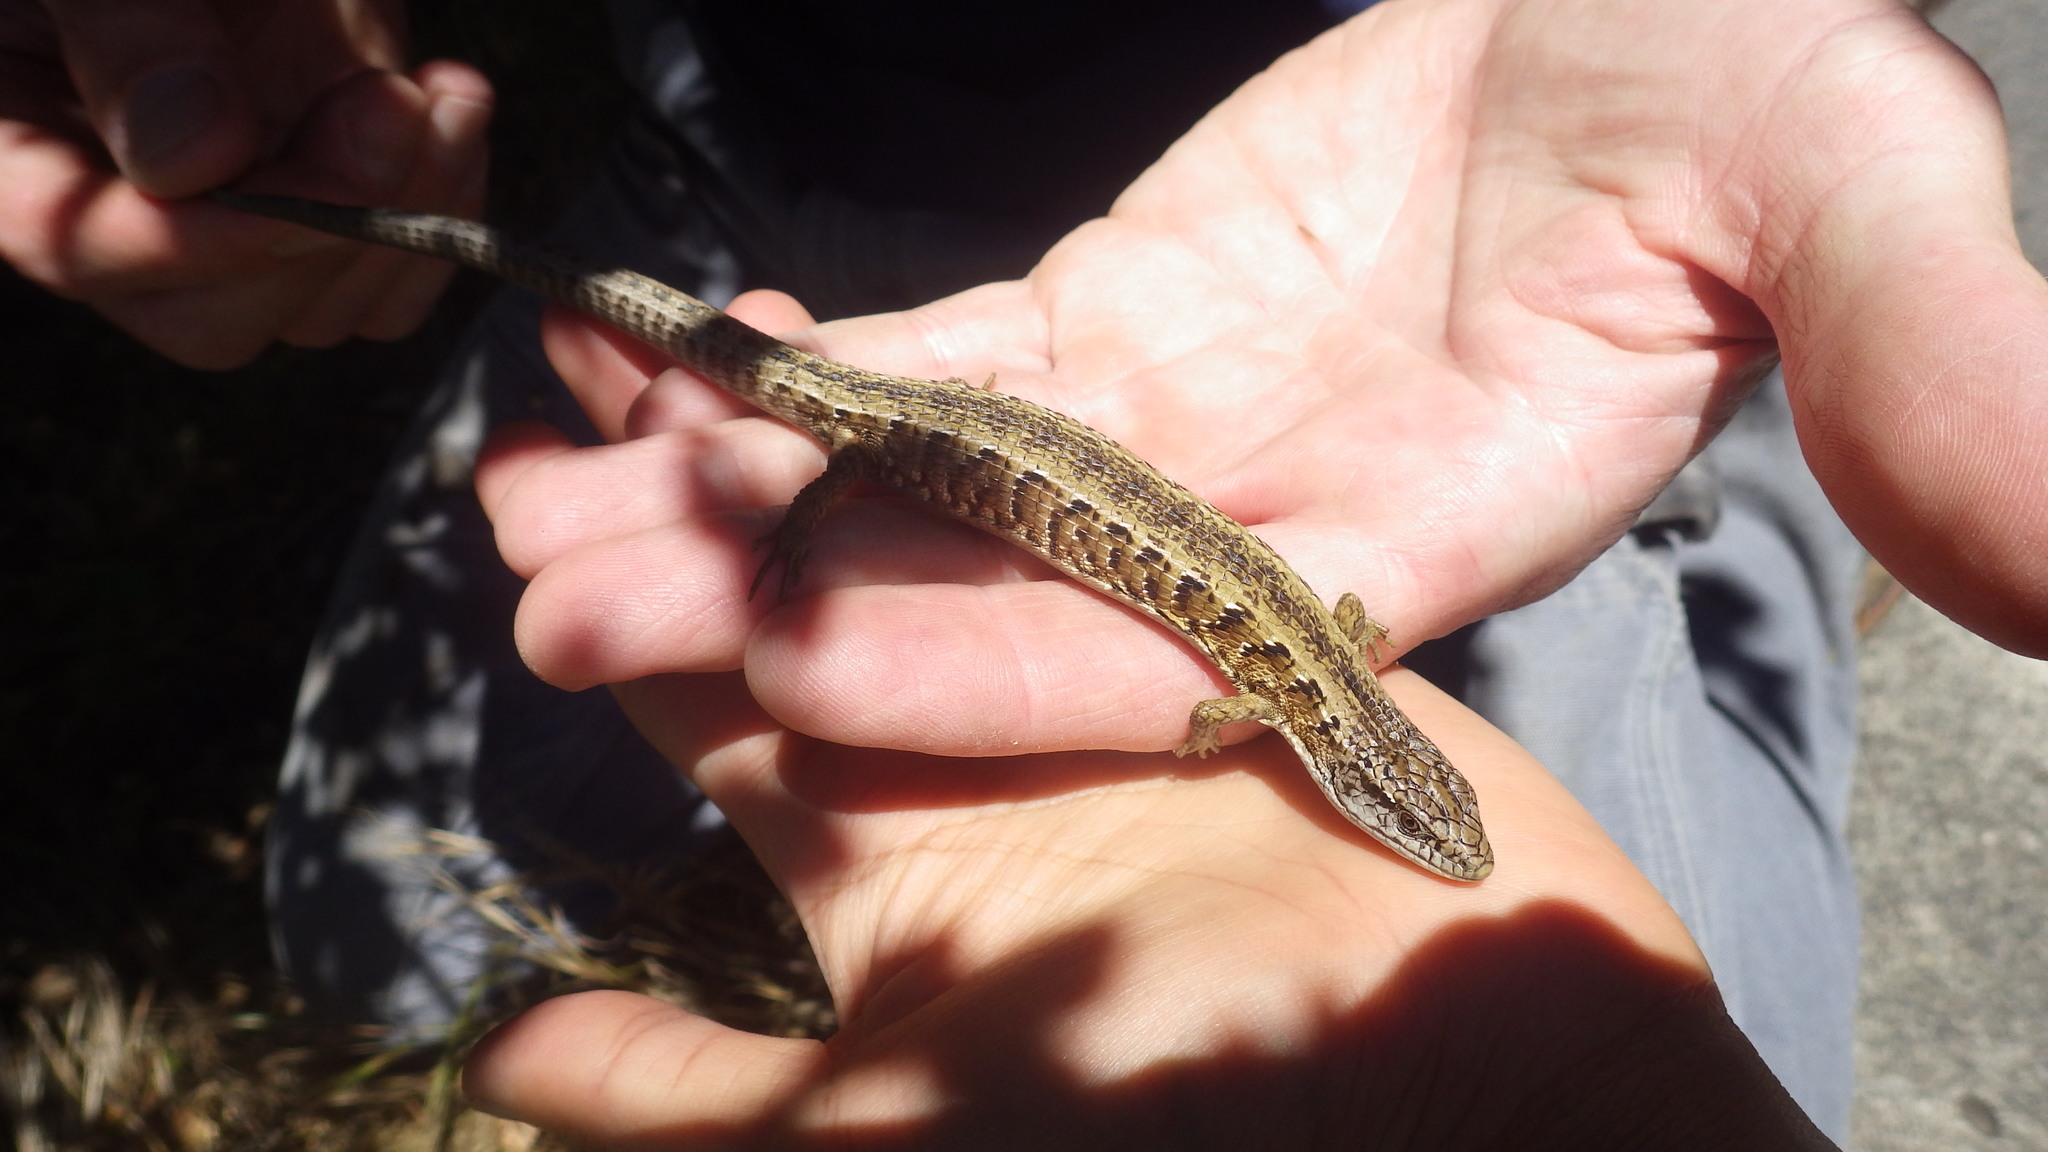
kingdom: Animalia
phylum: Chordata
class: Squamata
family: Anguidae
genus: Elgaria
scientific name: Elgaria coerulea
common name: Northern alligator lizard
